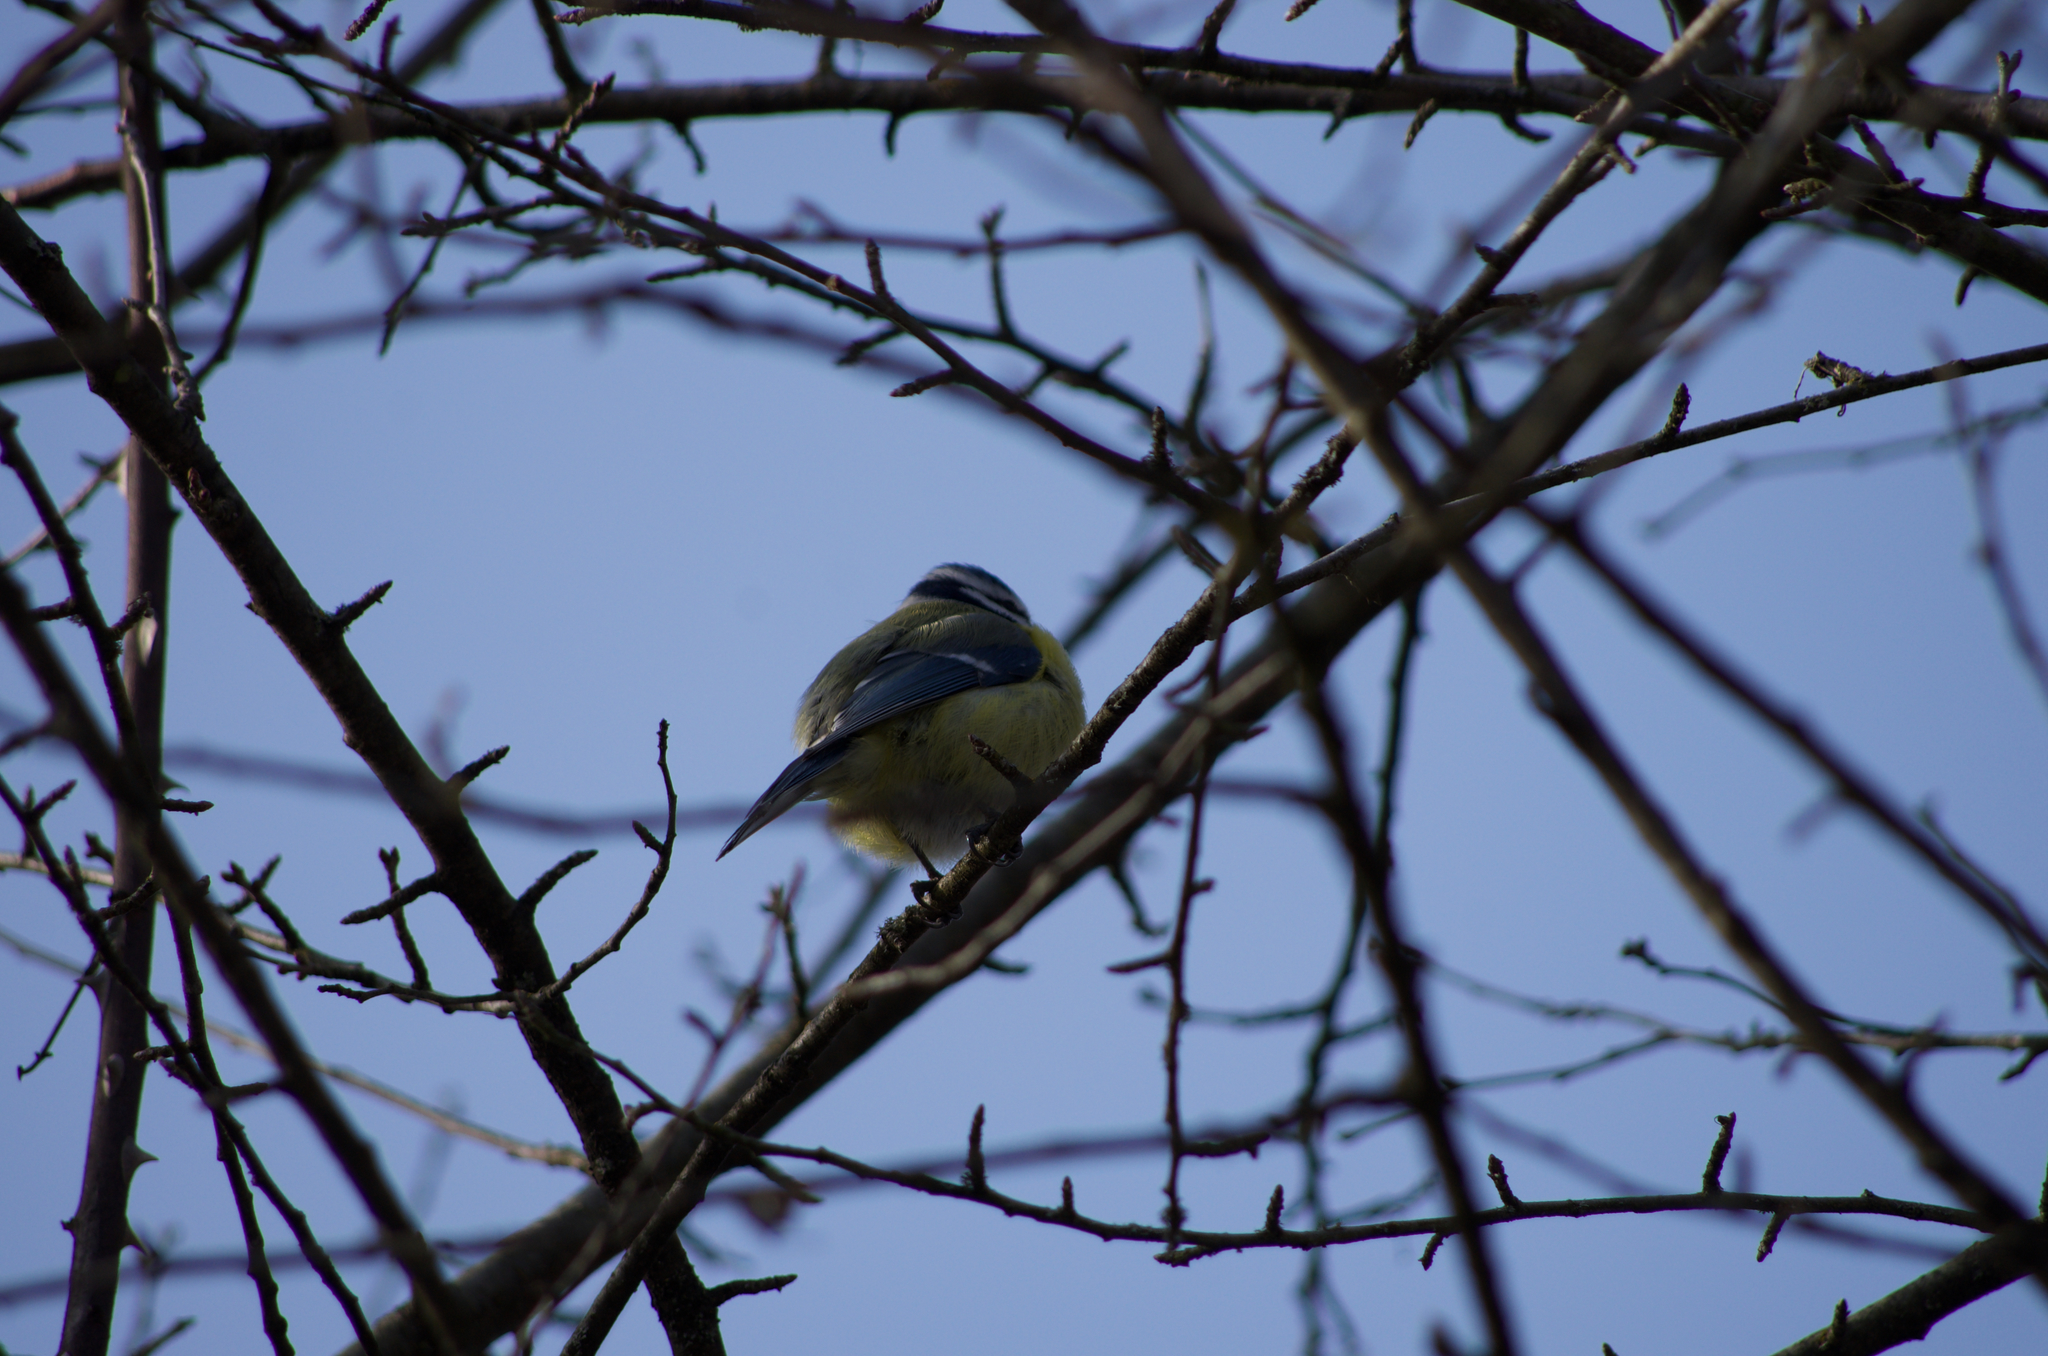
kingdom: Animalia
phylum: Chordata
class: Aves
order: Passeriformes
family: Paridae
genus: Cyanistes
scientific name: Cyanistes caeruleus
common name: Eurasian blue tit
